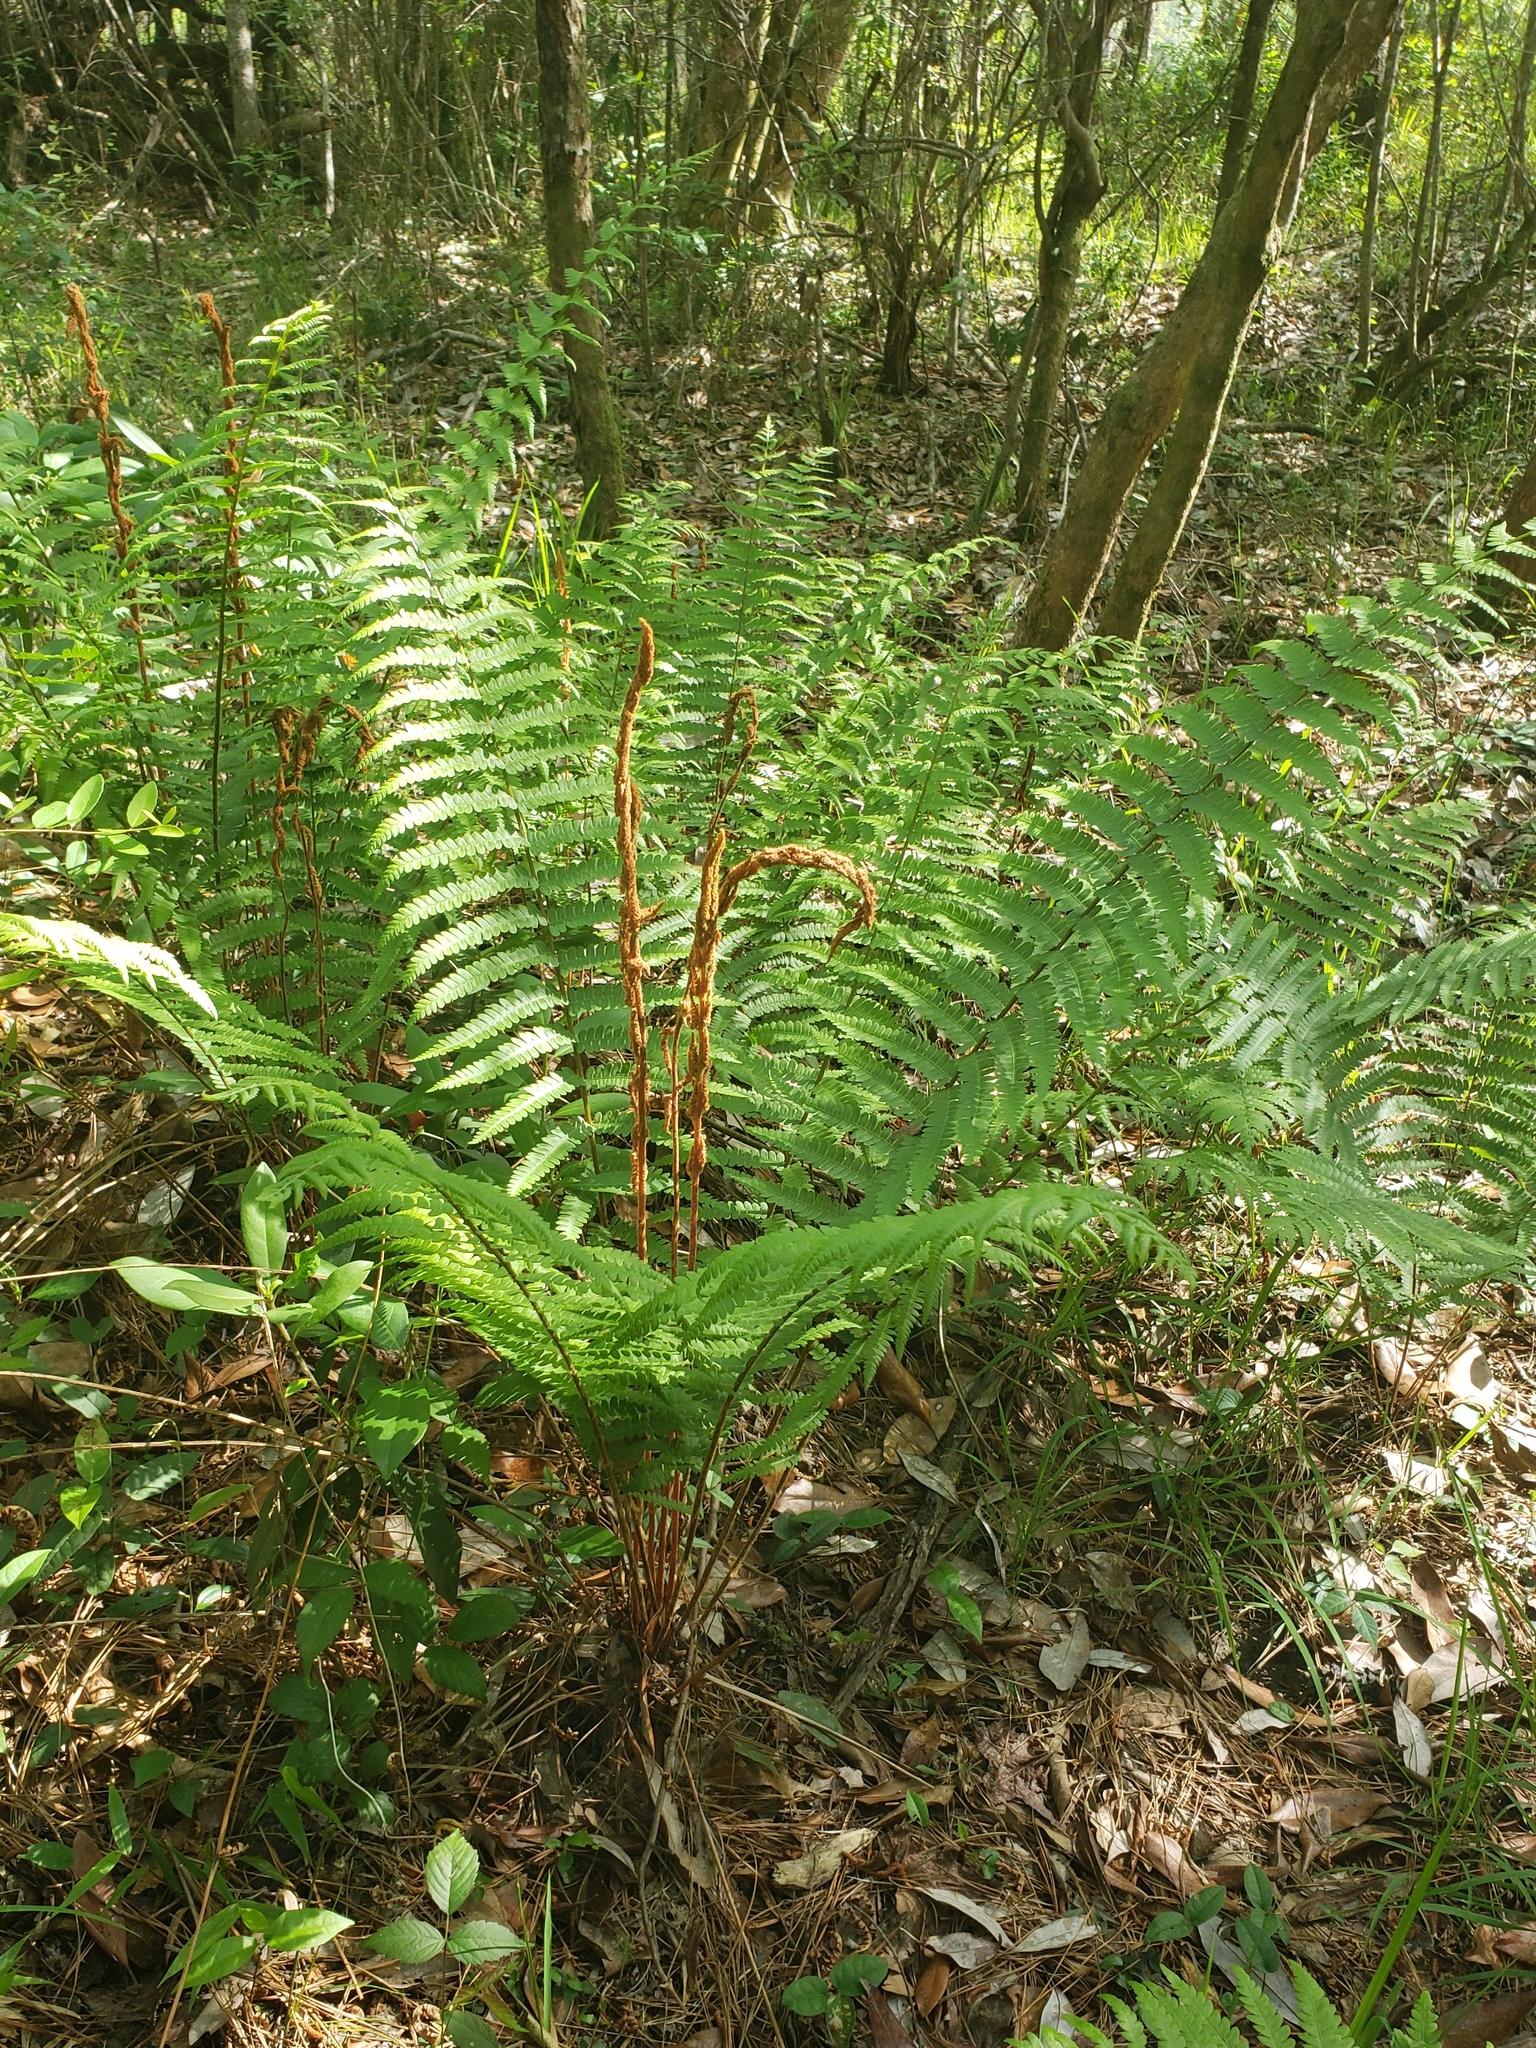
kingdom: Plantae
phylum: Tracheophyta
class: Polypodiopsida
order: Osmundales
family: Osmundaceae
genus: Osmundastrum
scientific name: Osmundastrum cinnamomeum
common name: Cinnamon fern
